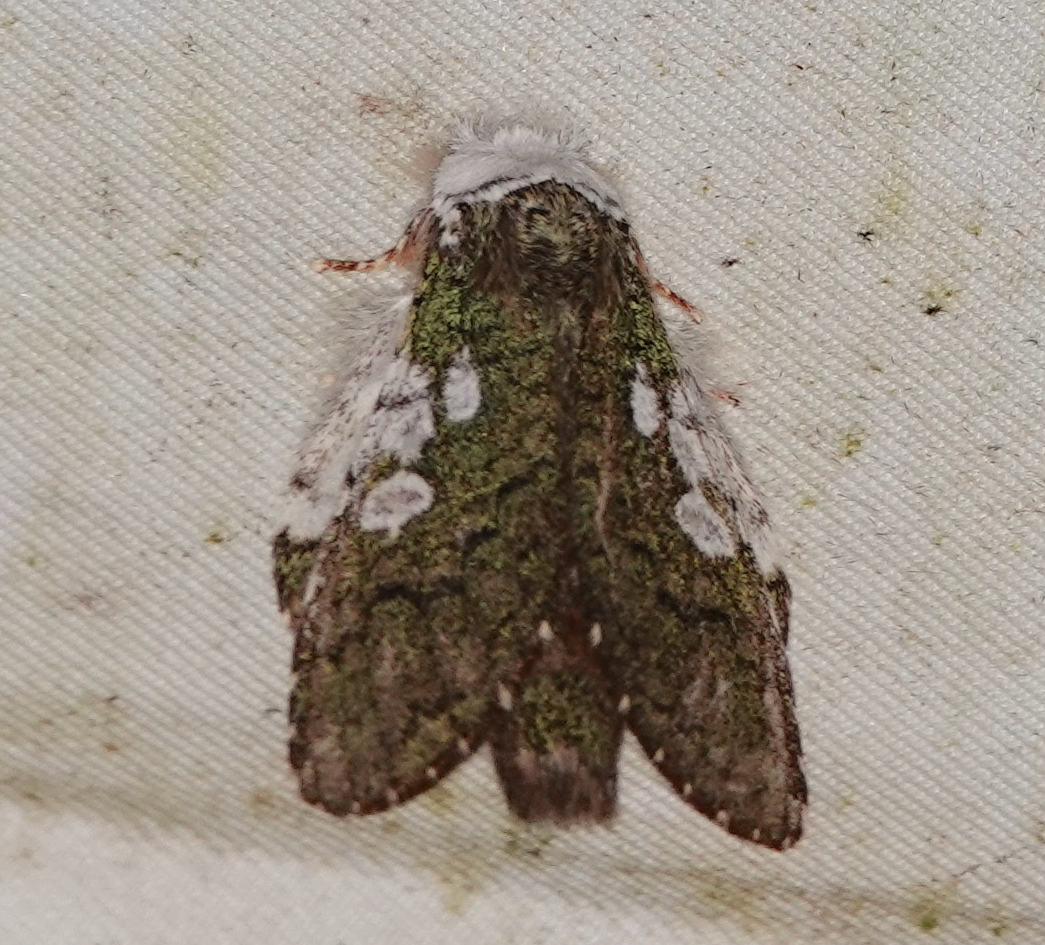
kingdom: Animalia
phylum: Arthropoda
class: Insecta
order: Lepidoptera
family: Notodontidae
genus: Syntypistis
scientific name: Syntypistis comatus
